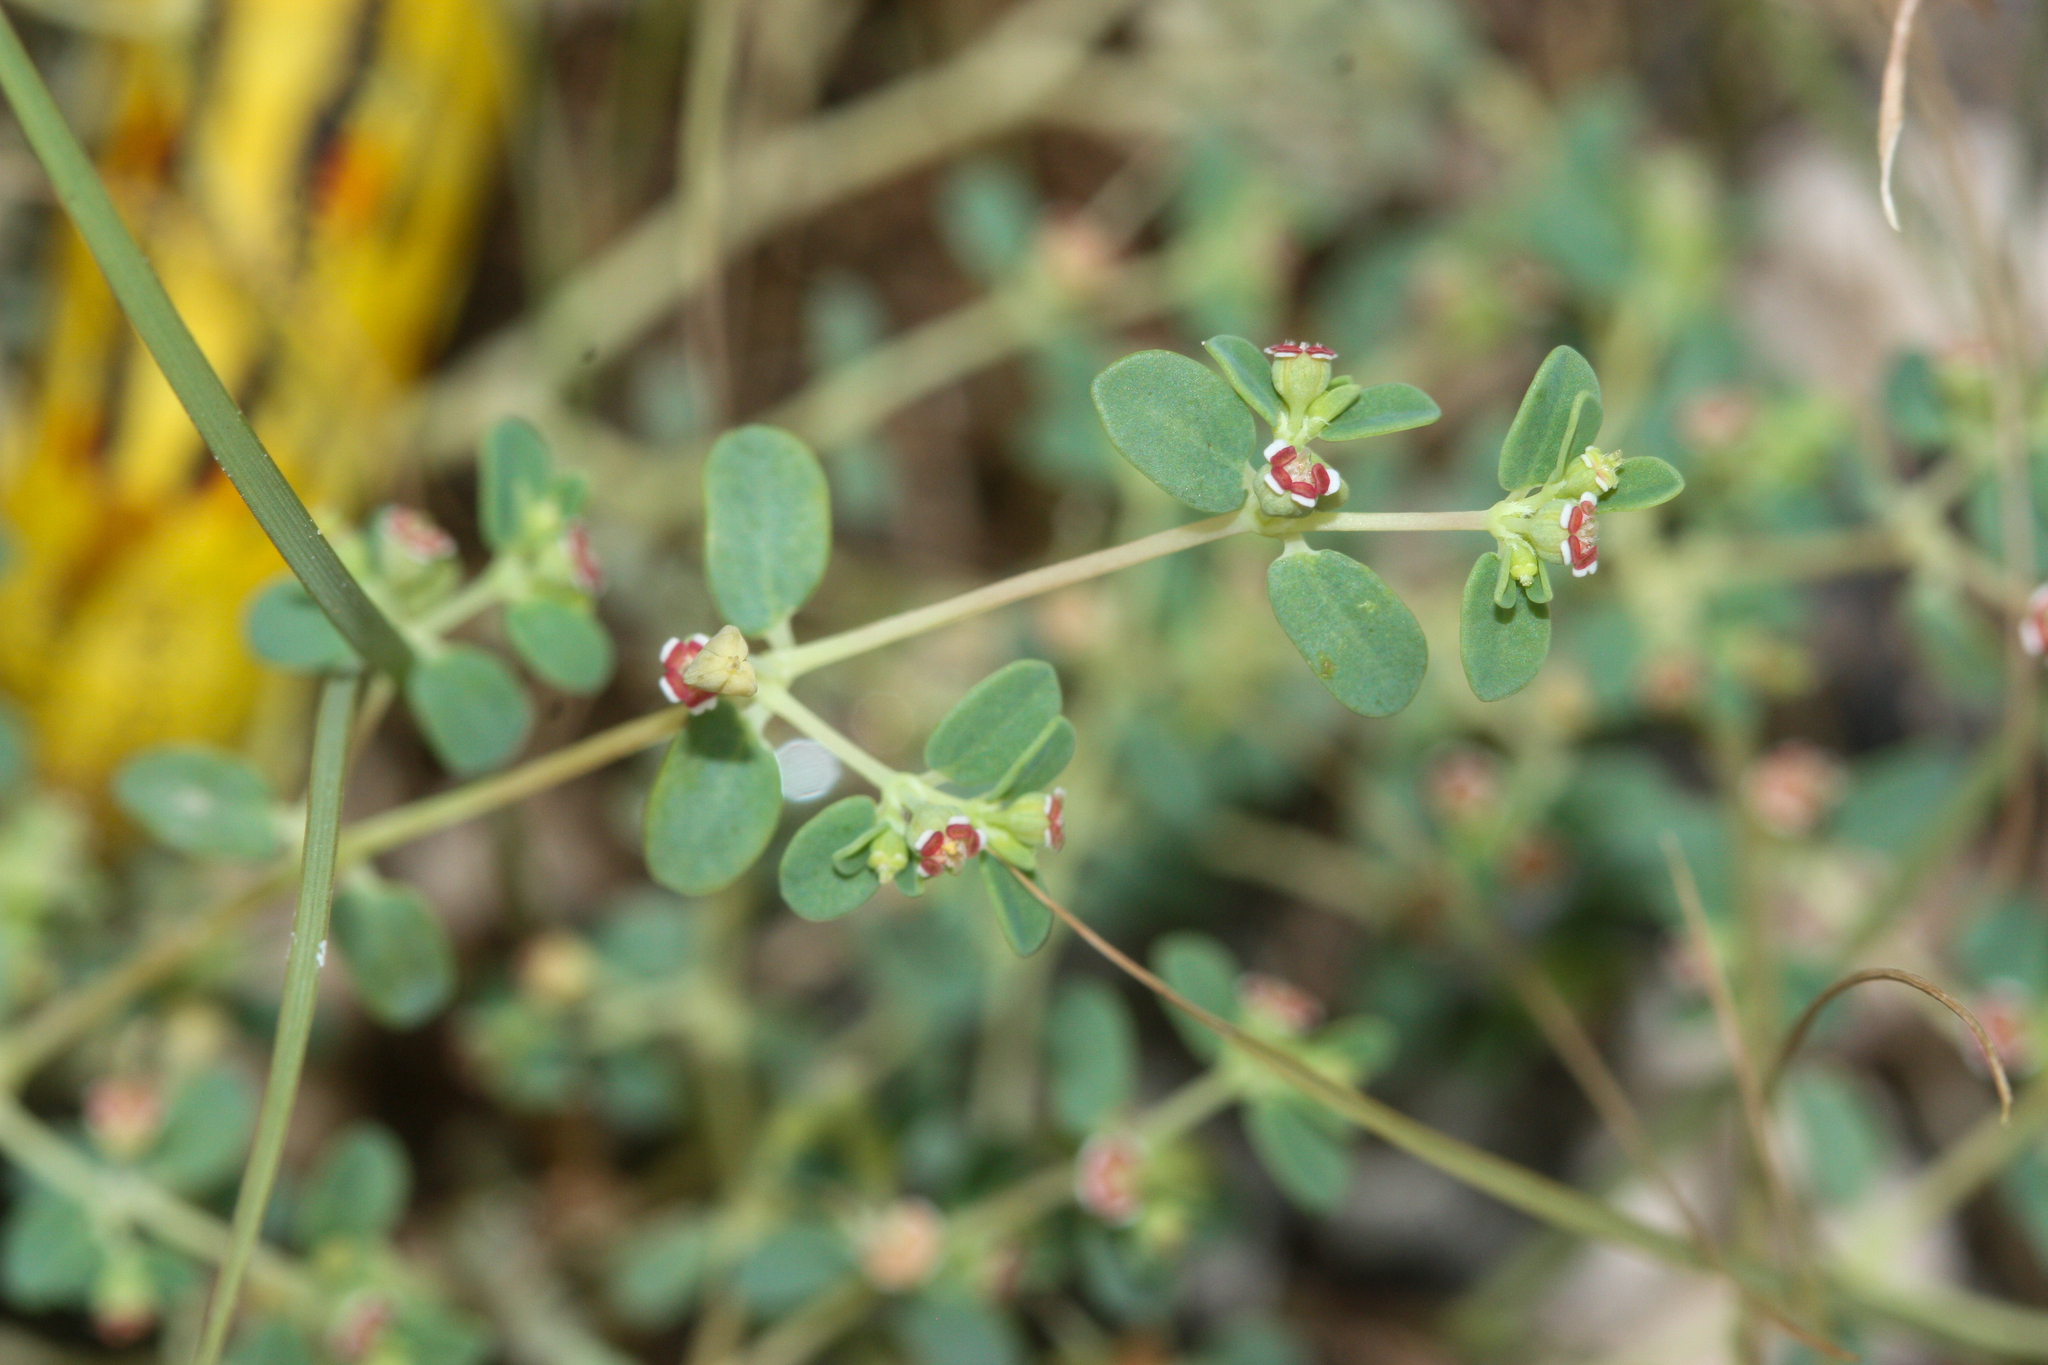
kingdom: Plantae
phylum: Tracheophyta
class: Magnoliopsida
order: Malpighiales
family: Euphorbiaceae
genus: Euphorbia
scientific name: Euphorbia polycarpa
